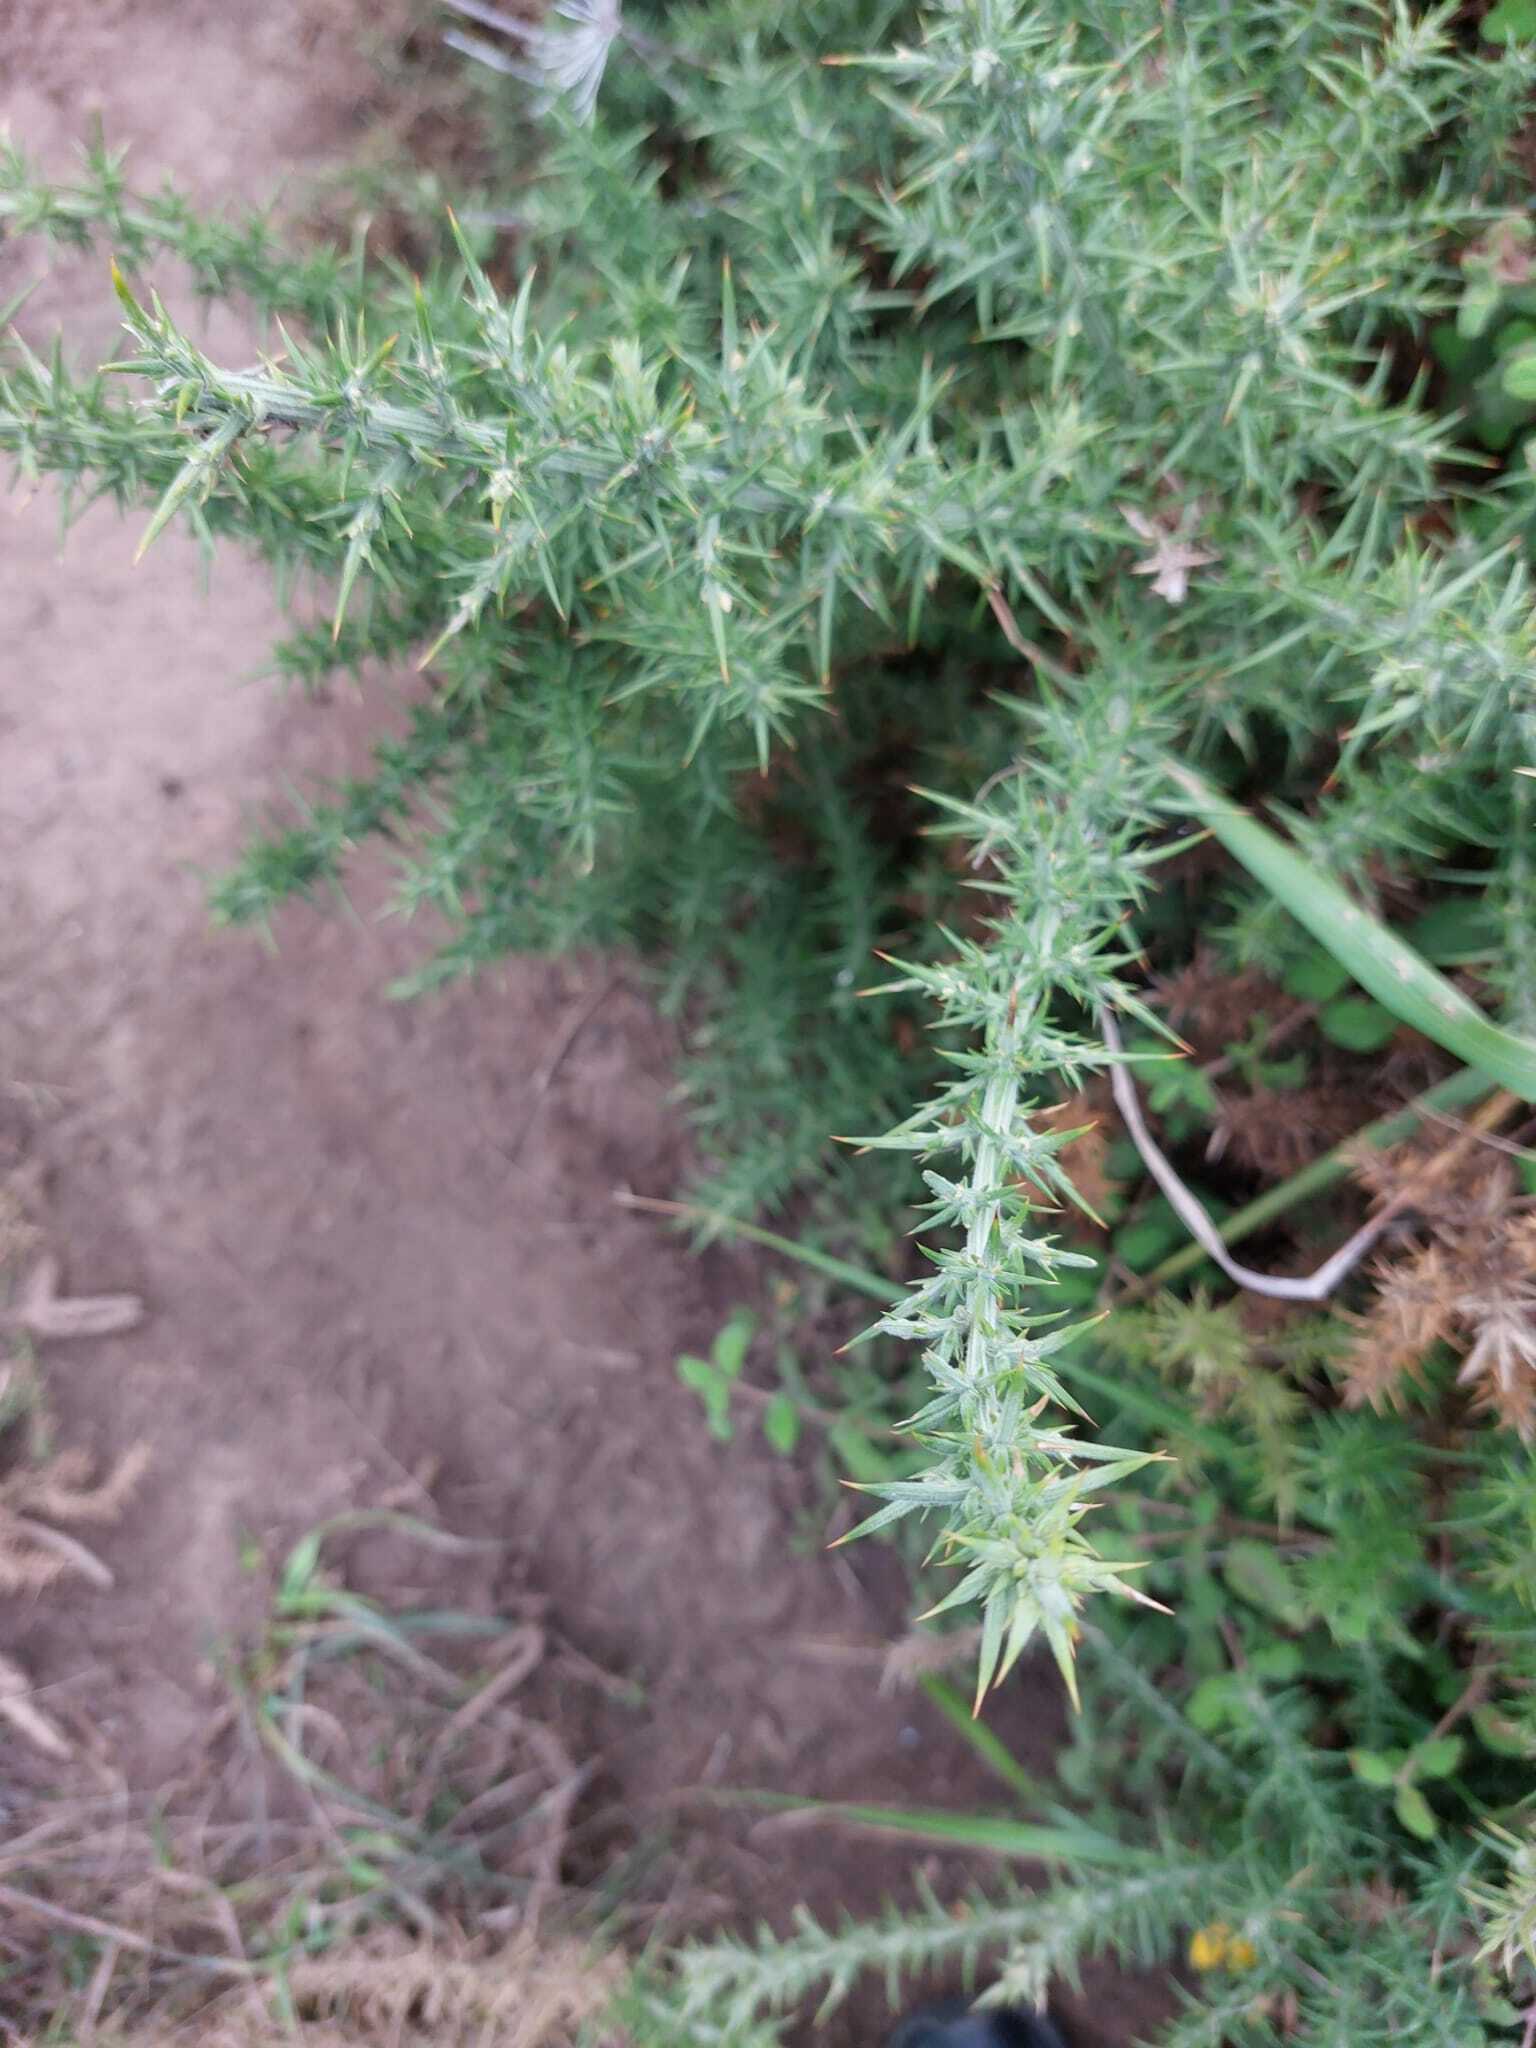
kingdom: Plantae
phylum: Tracheophyta
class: Magnoliopsida
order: Fabales
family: Fabaceae
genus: Ulex
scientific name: Ulex europaeus
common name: Common gorse
